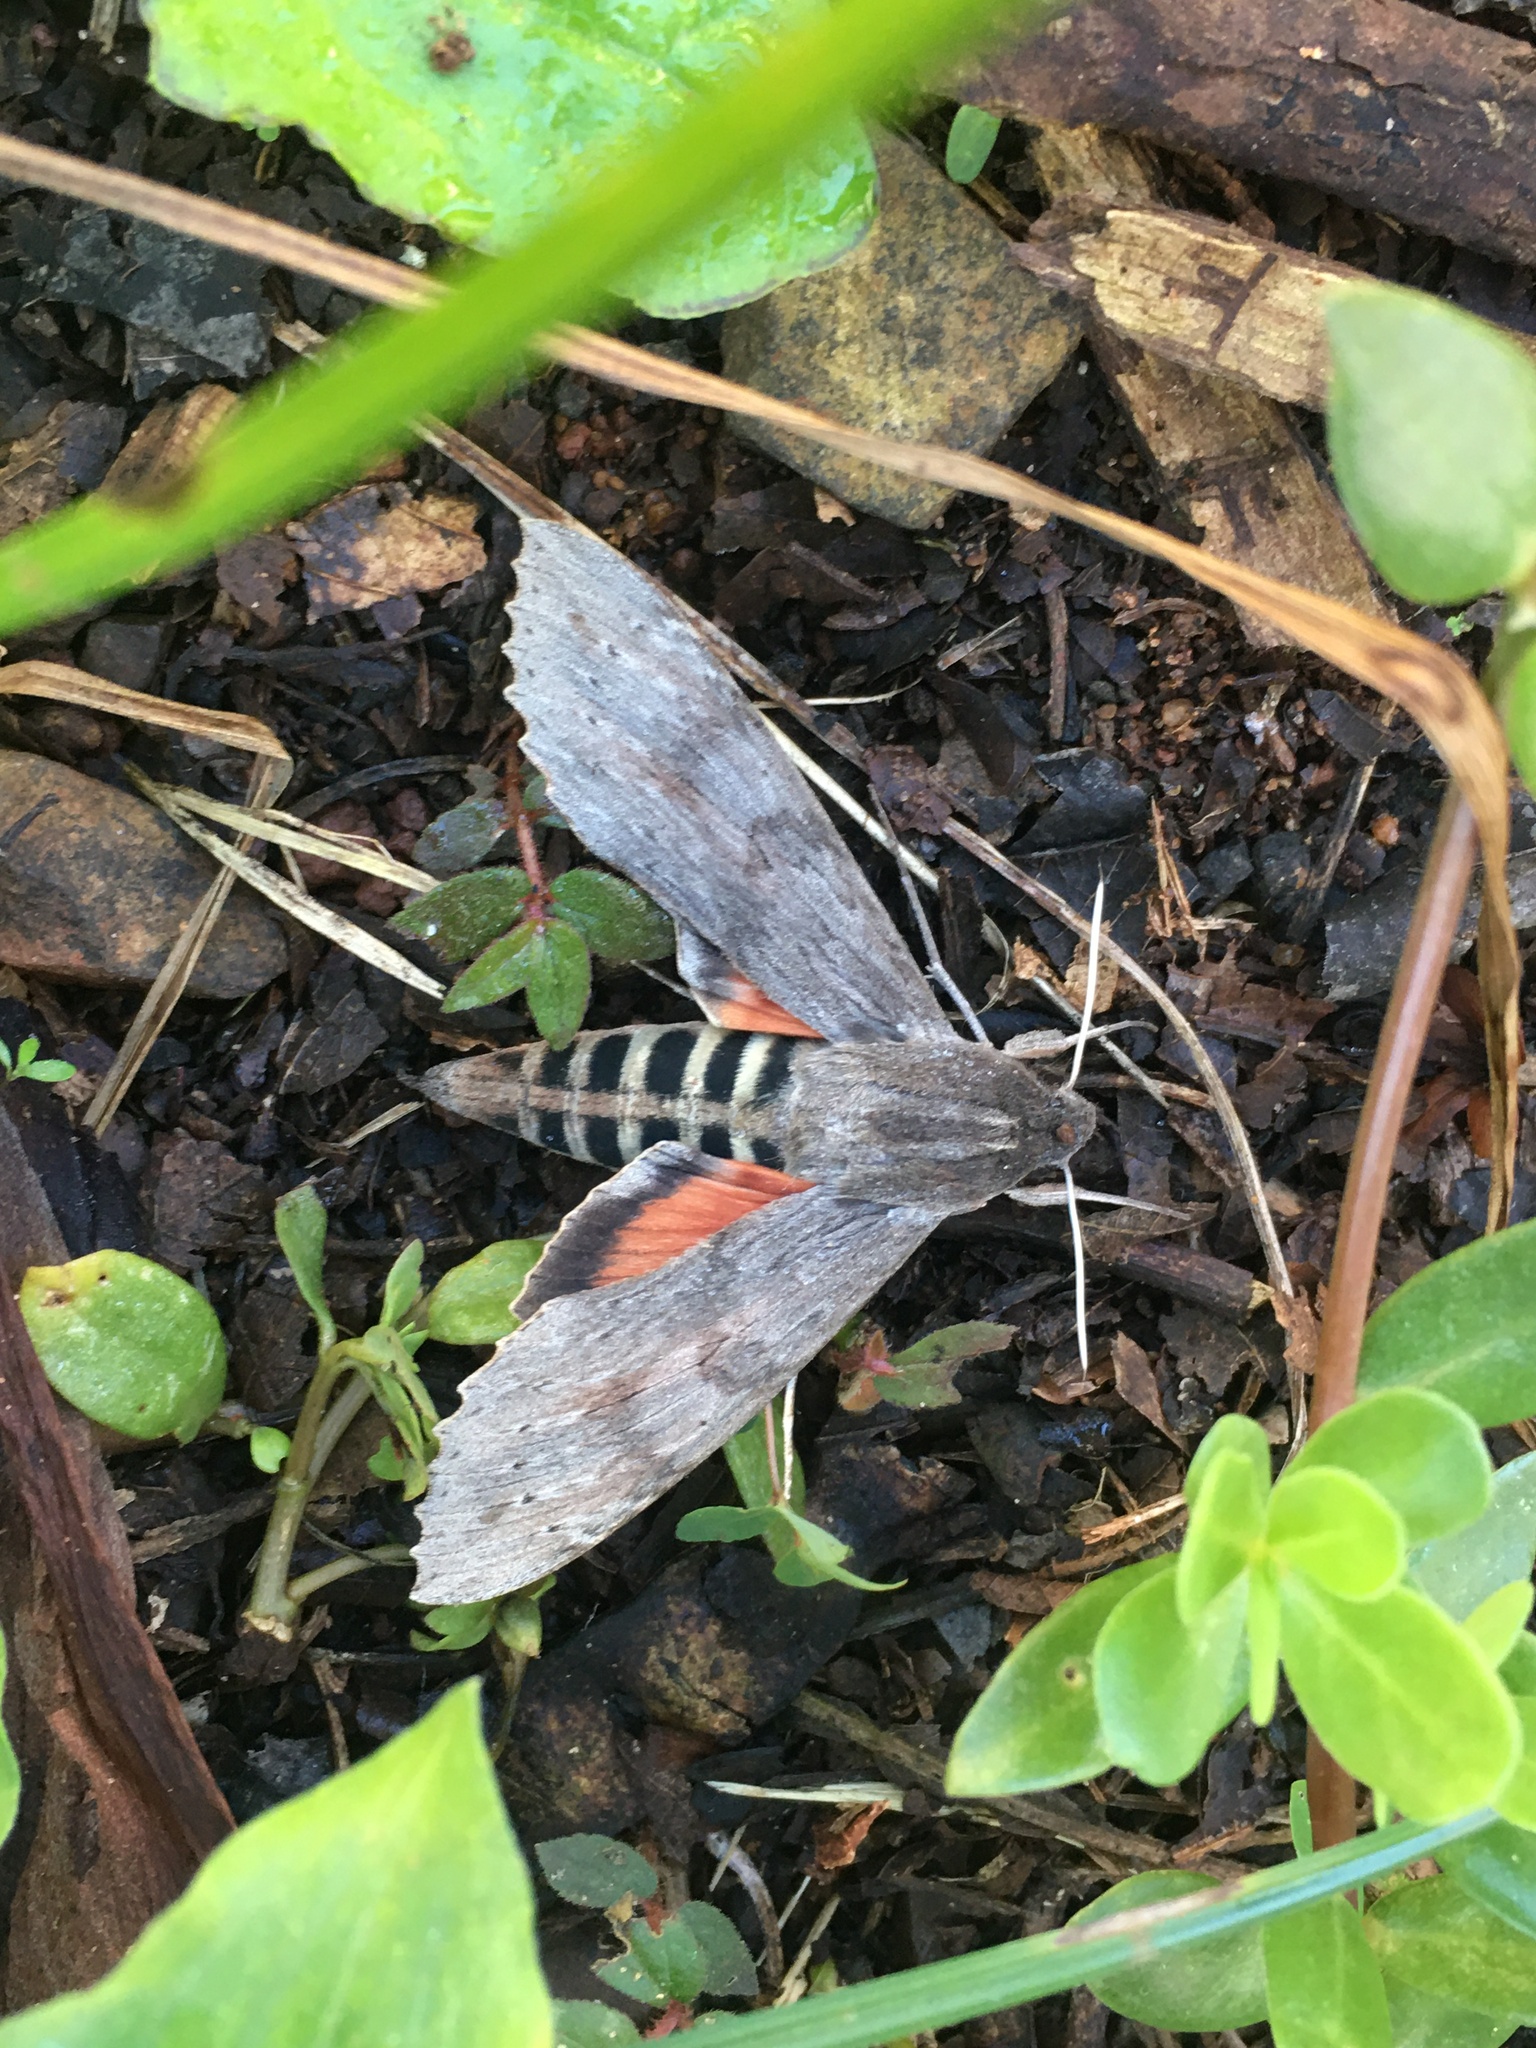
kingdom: Animalia
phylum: Arthropoda
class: Insecta
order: Lepidoptera
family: Sphingidae
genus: Erinnyis
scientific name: Erinnyis ello
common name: Ello sphinx
